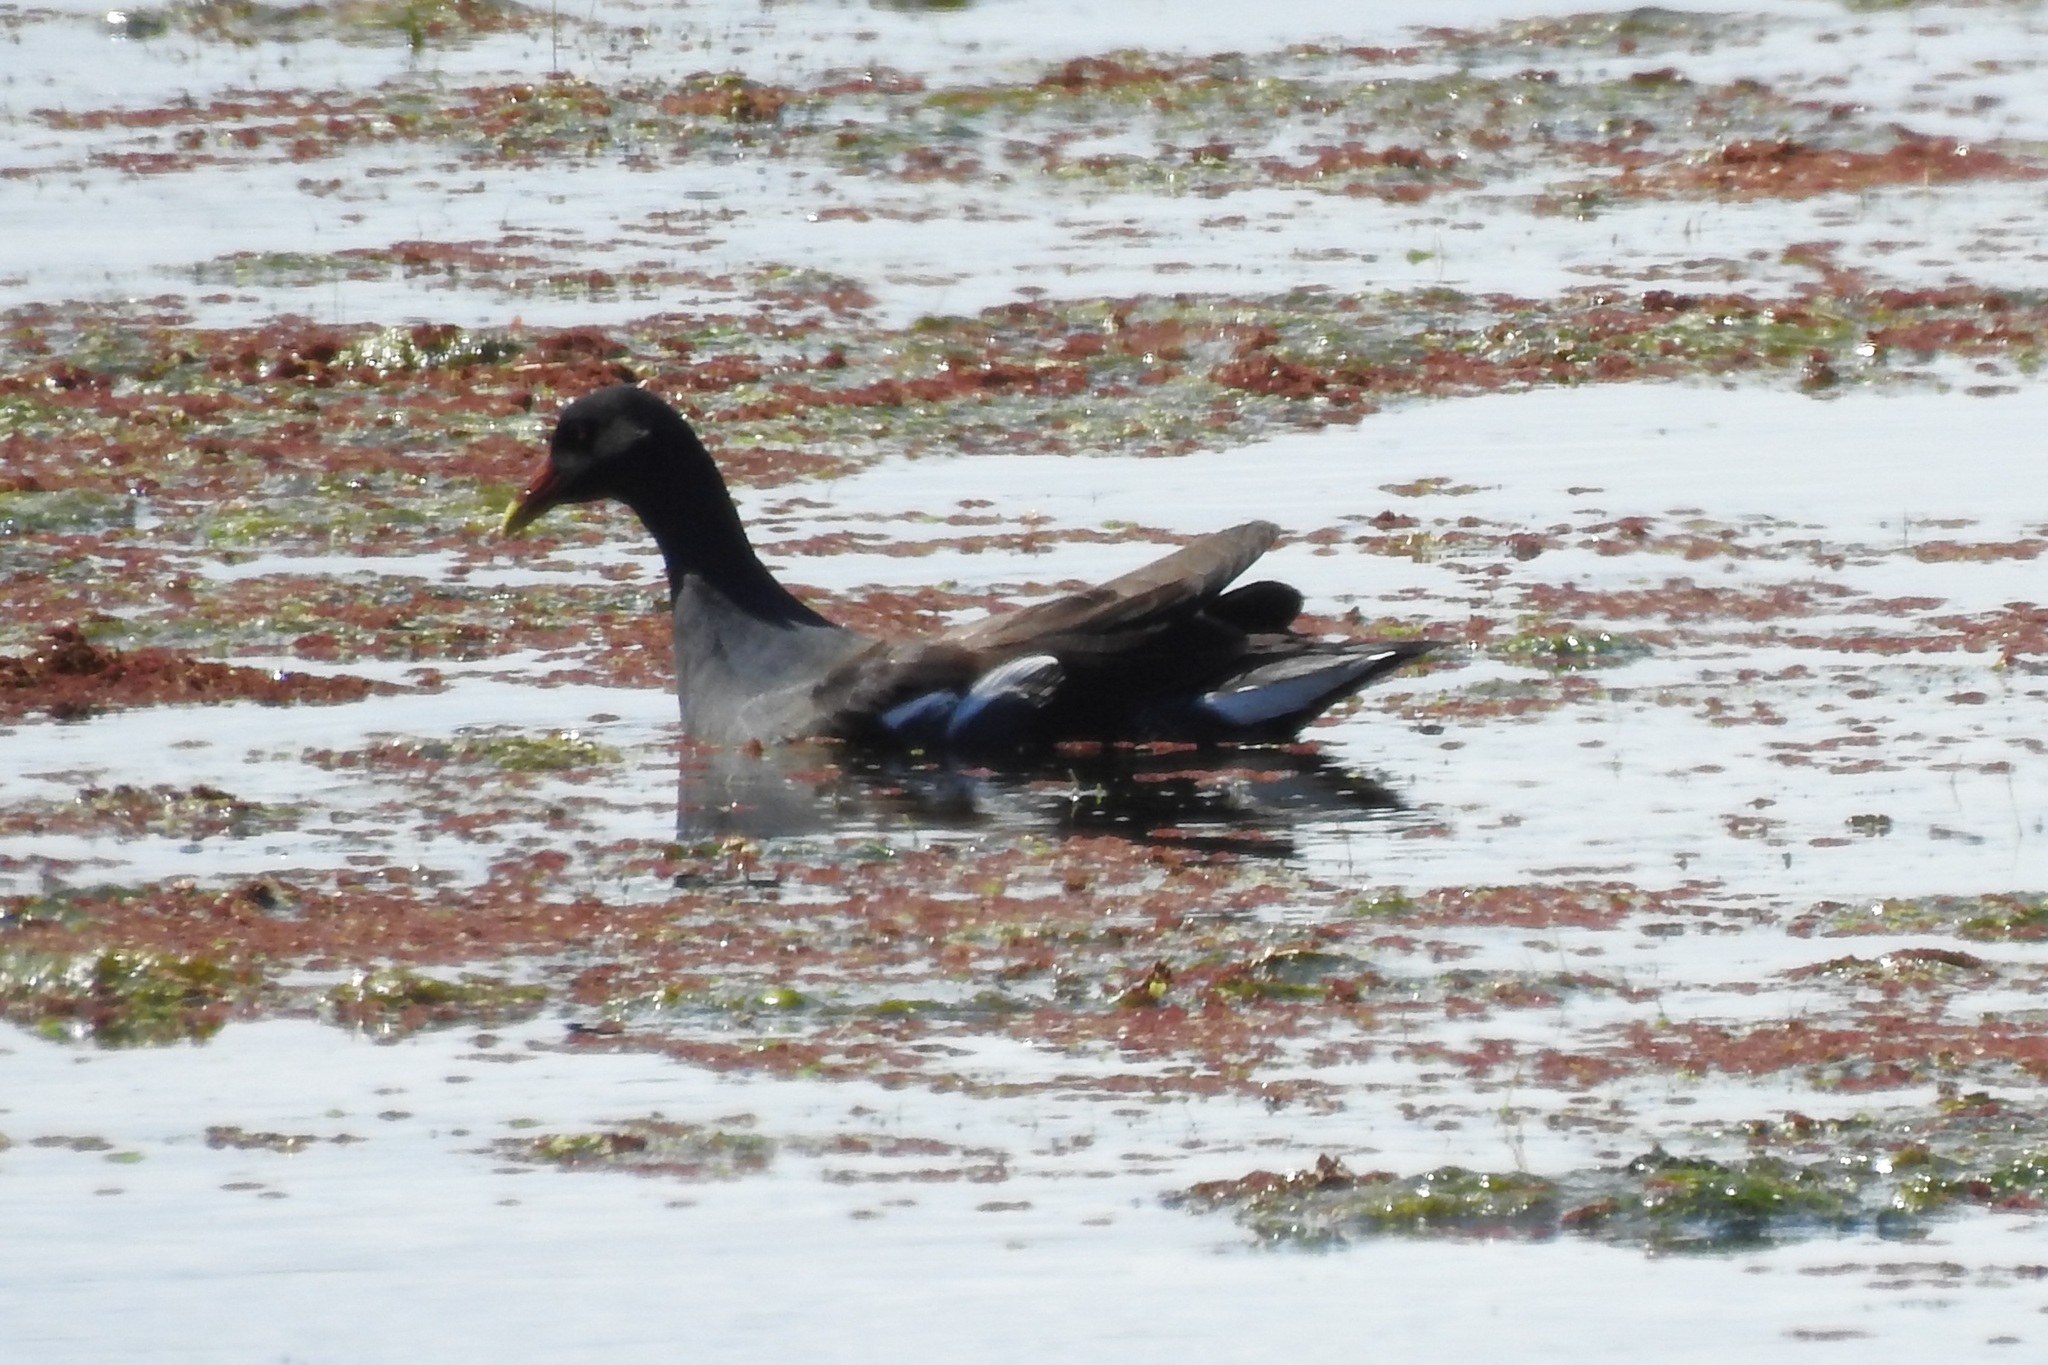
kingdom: Animalia
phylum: Chordata
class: Aves
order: Gruiformes
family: Rallidae
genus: Gallinula
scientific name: Gallinula chloropus
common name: Common moorhen
